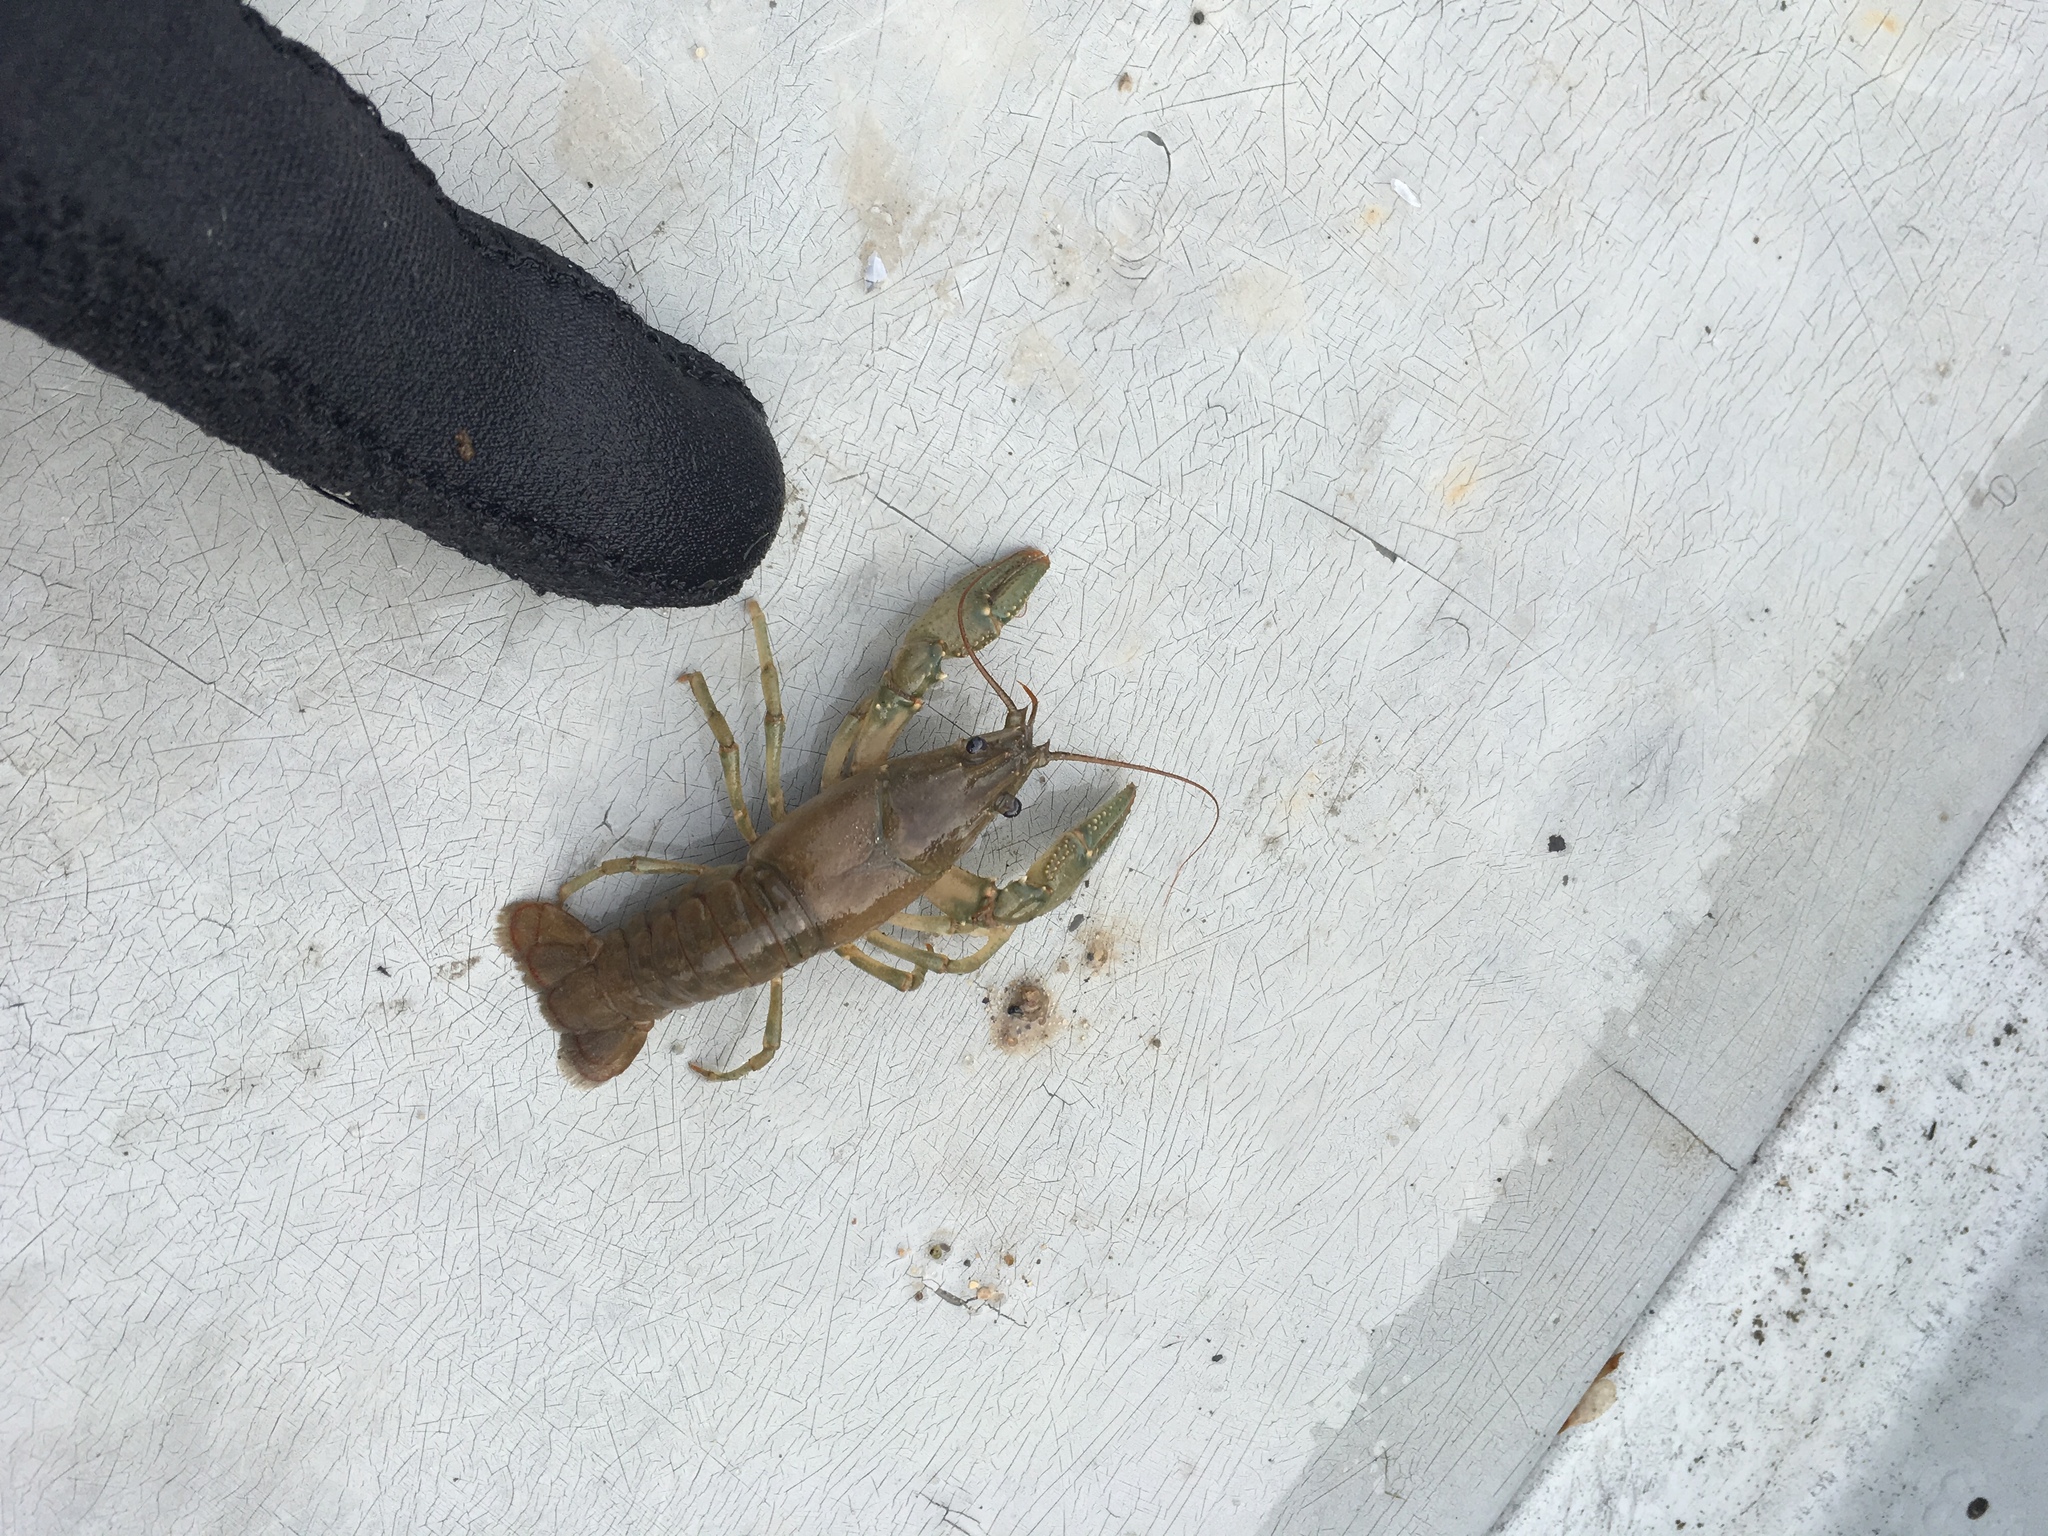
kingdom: Animalia
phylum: Arthropoda
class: Malacostraca
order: Decapoda
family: Cambaridae
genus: Faxonius
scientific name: Faxonius virilis
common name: Virile crayfish
